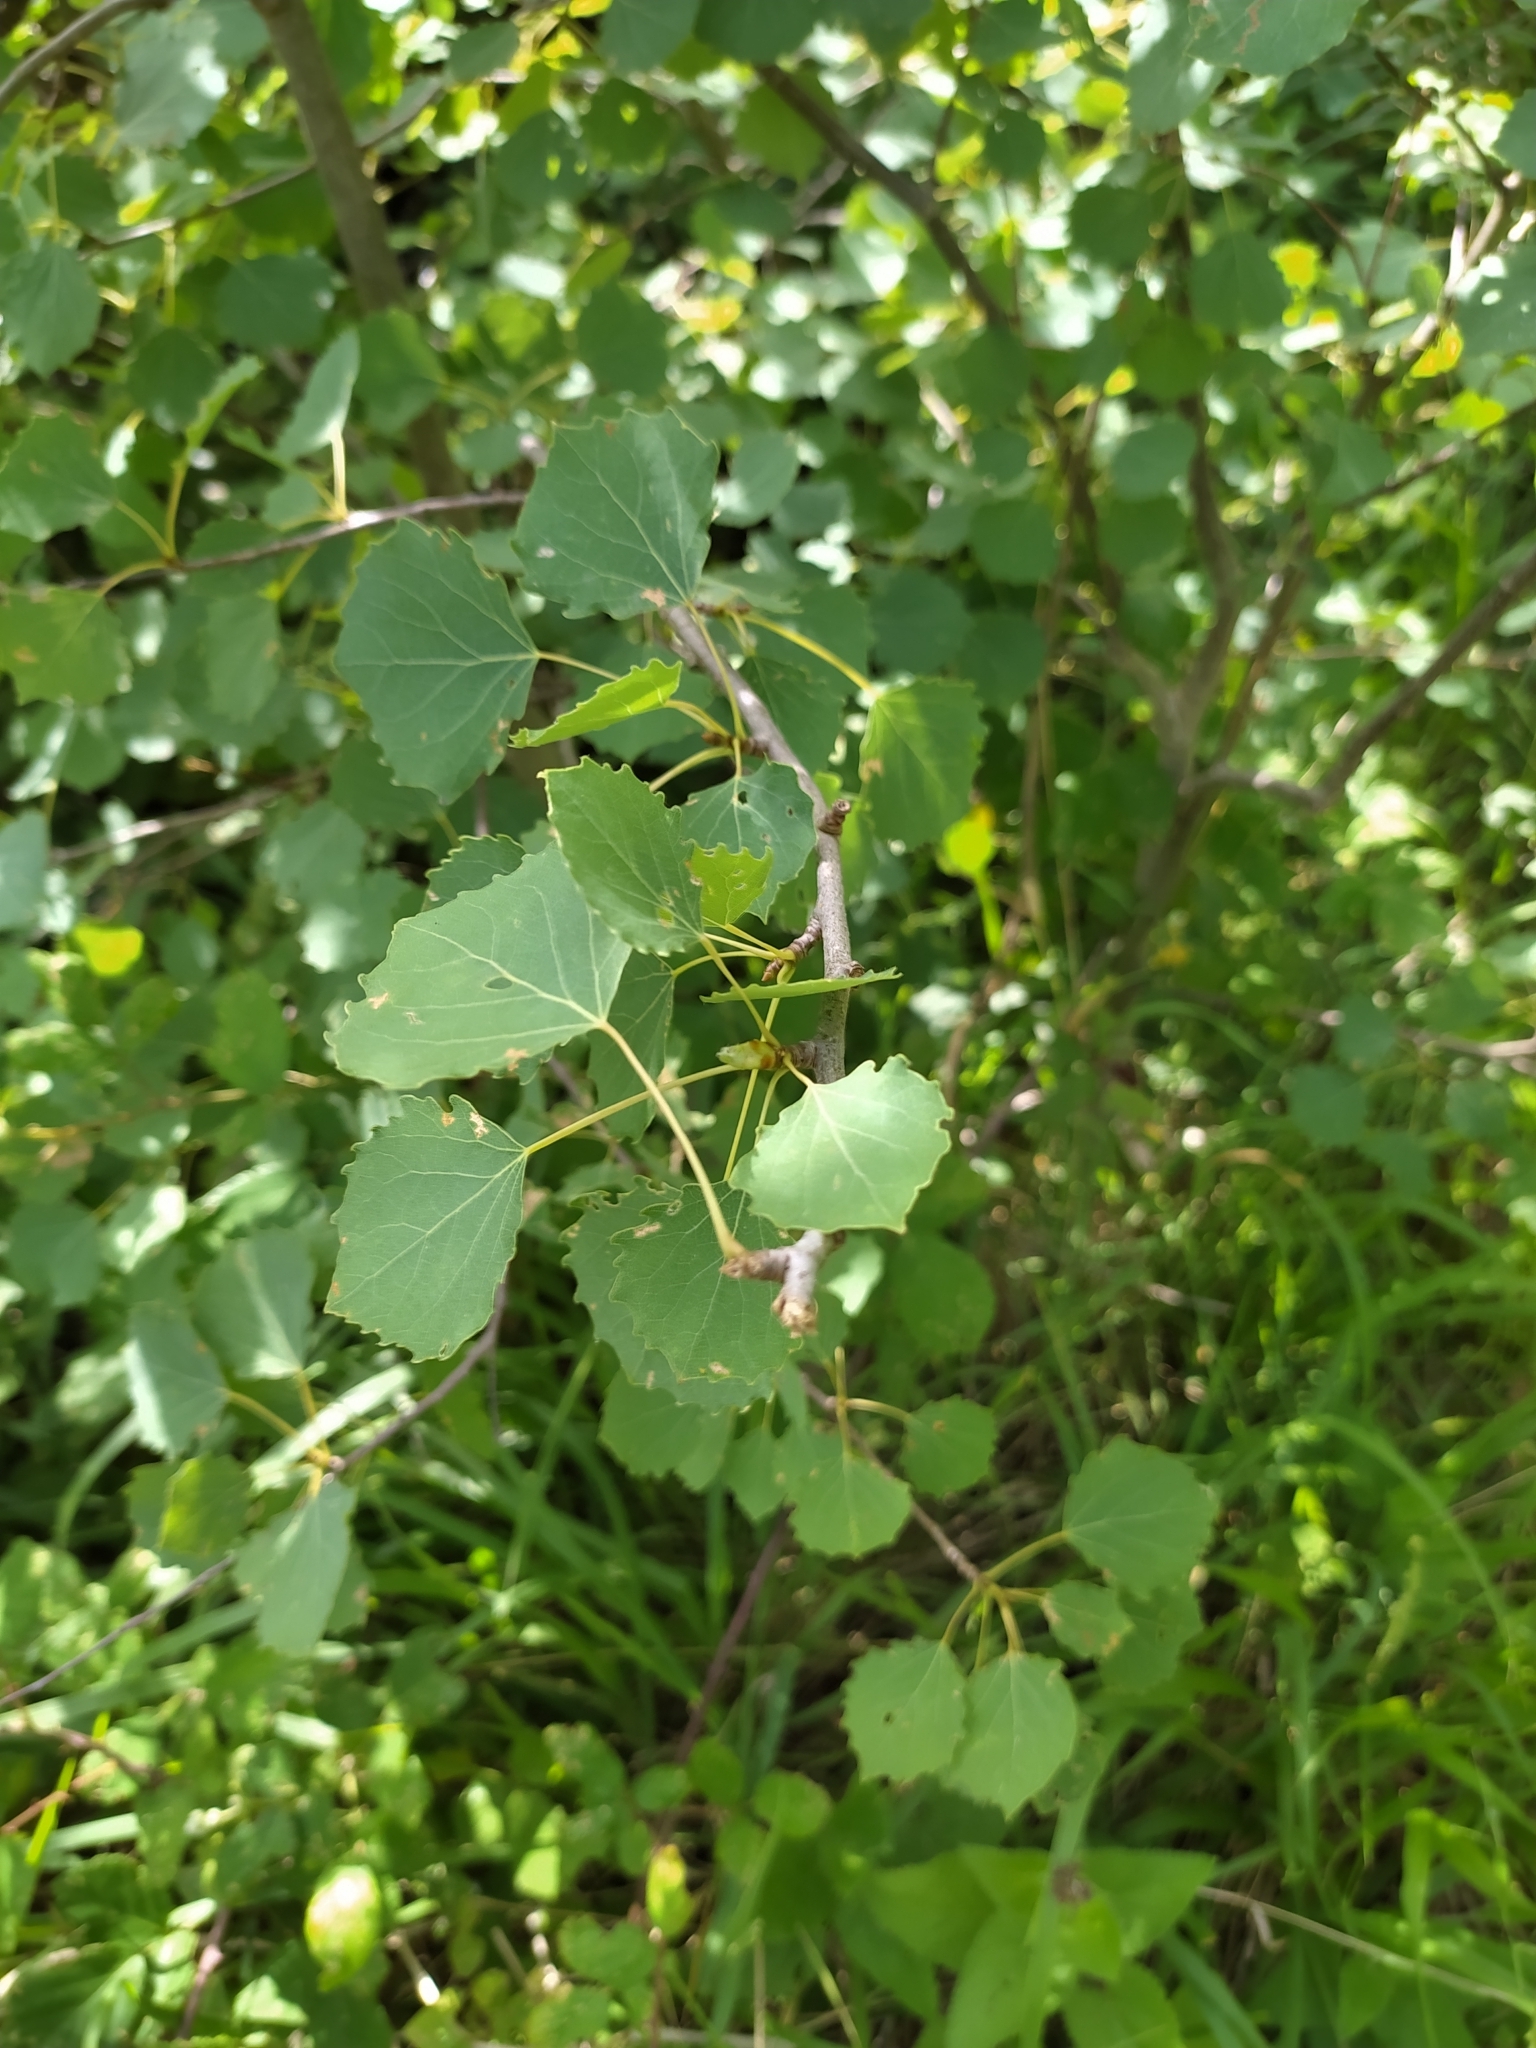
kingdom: Plantae
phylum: Tracheophyta
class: Magnoliopsida
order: Malpighiales
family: Salicaceae
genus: Populus
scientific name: Populus tremula
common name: European aspen
